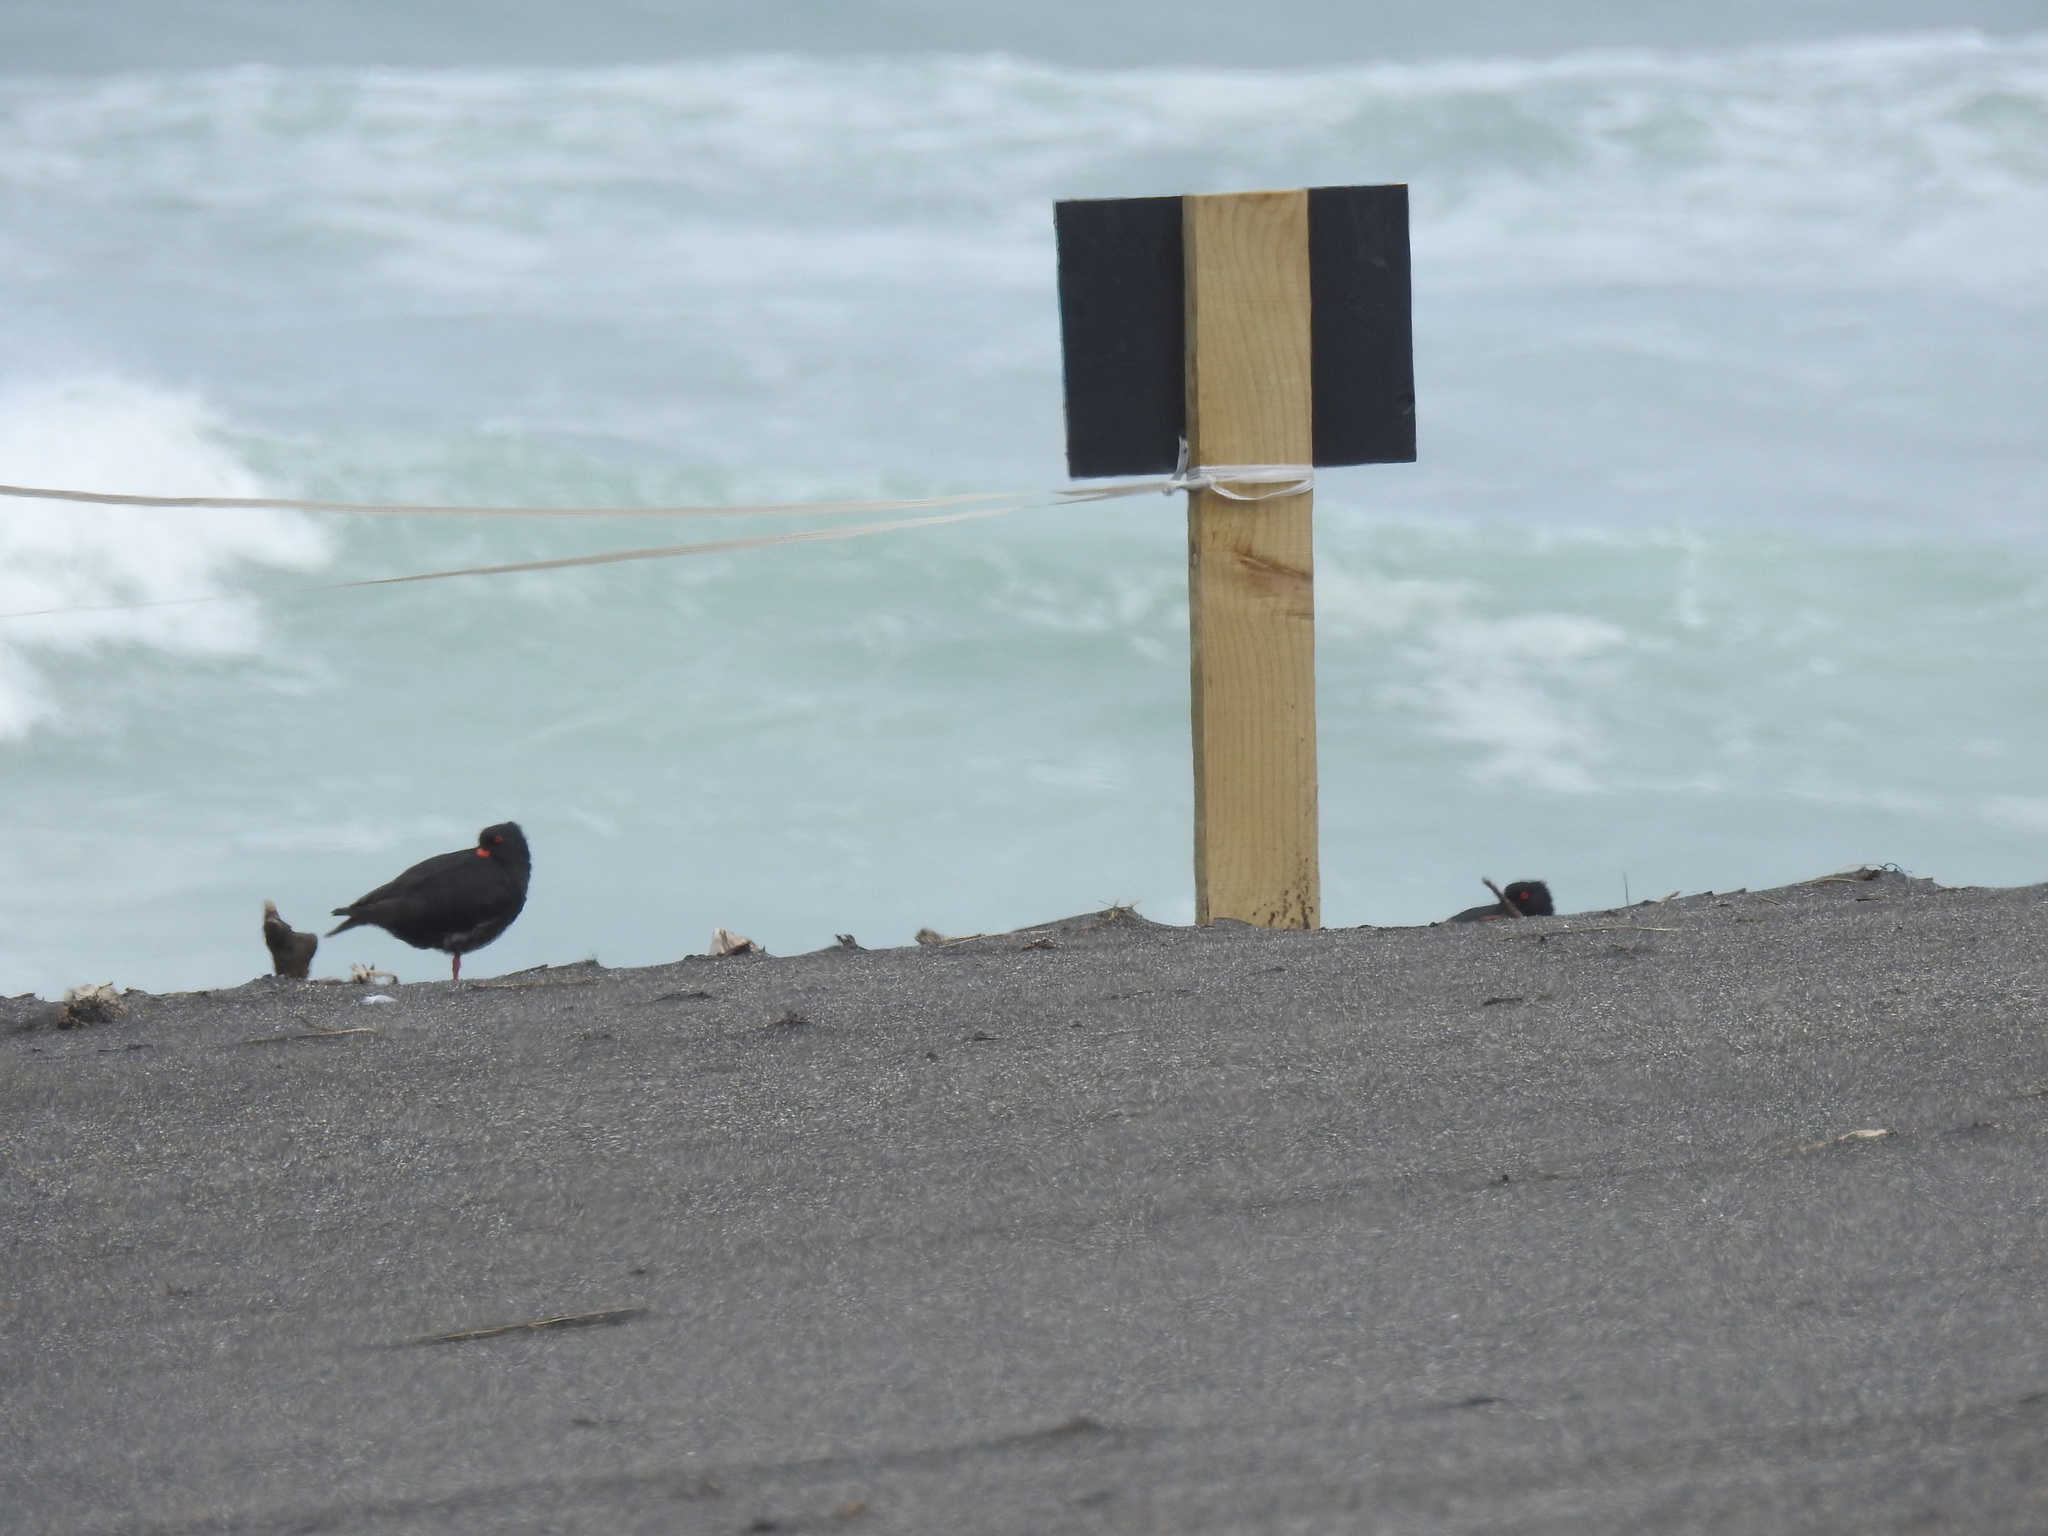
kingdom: Animalia
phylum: Chordata
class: Aves
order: Charadriiformes
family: Haematopodidae
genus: Haematopus
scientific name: Haematopus unicolor
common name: Variable oystercatcher
